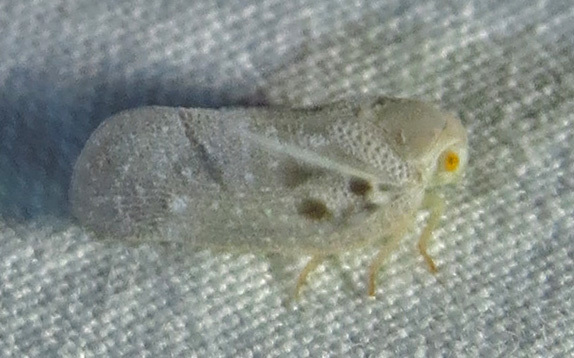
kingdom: Animalia
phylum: Arthropoda
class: Insecta
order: Hemiptera
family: Flatidae
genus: Metcalfa
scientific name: Metcalfa pruinosa
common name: Citrus flatid planthopper
